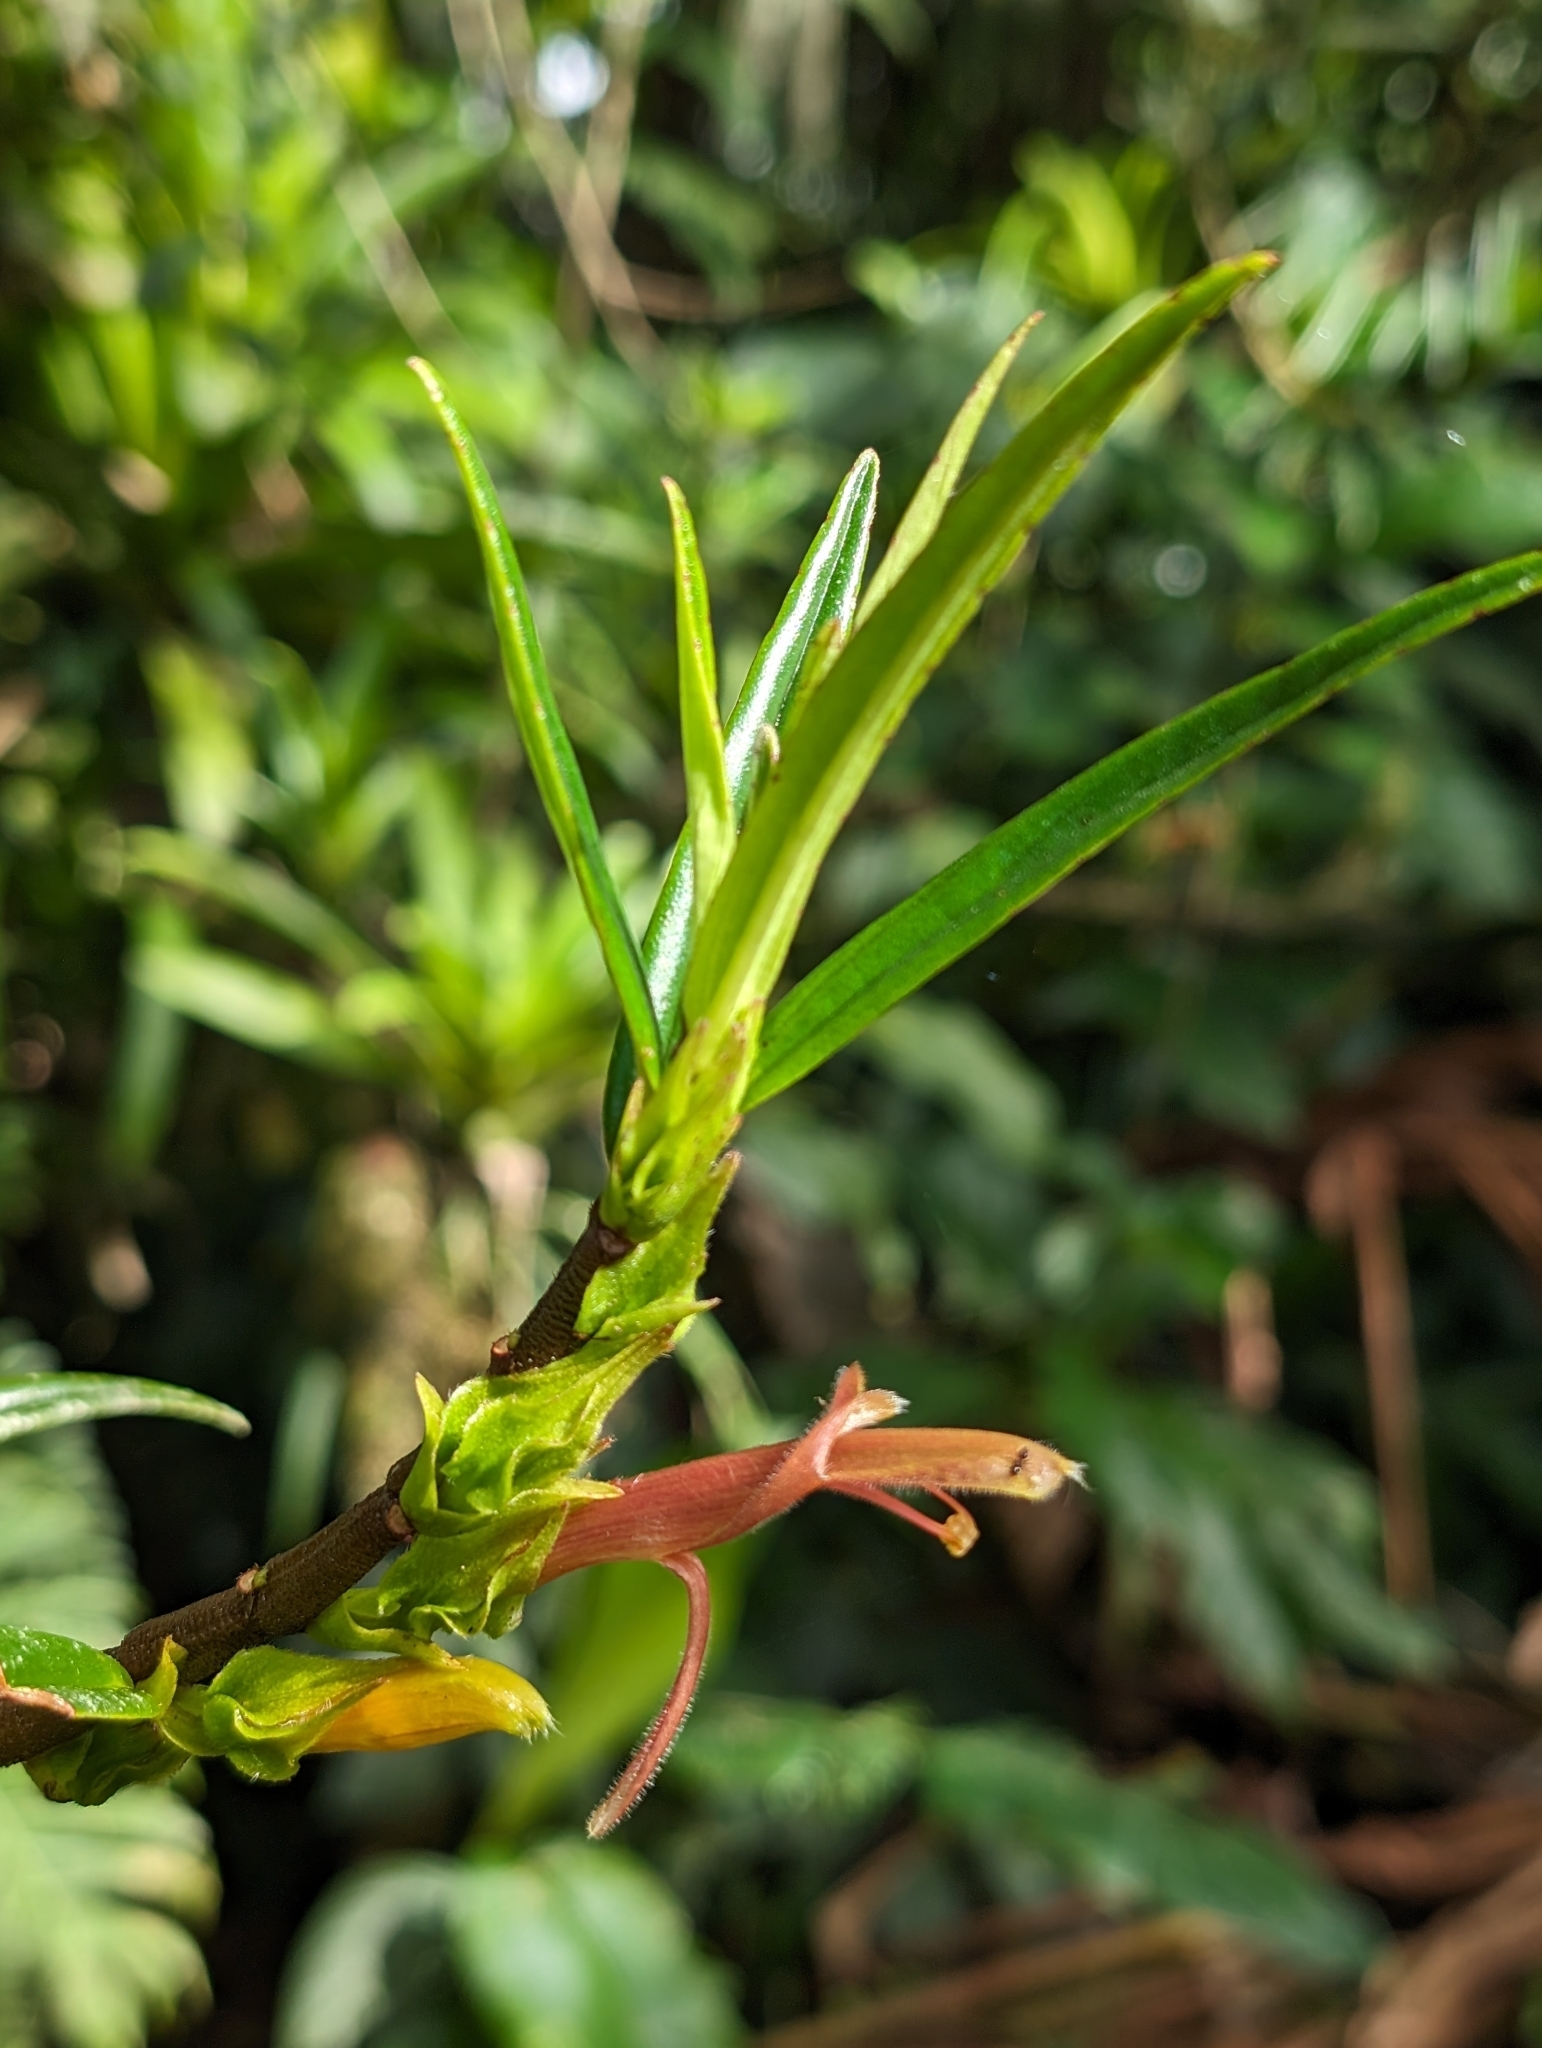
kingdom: Plantae
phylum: Tracheophyta
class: Magnoliopsida
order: Lamiales
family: Gesneriaceae
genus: Columnea
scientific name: Columnea linearis
